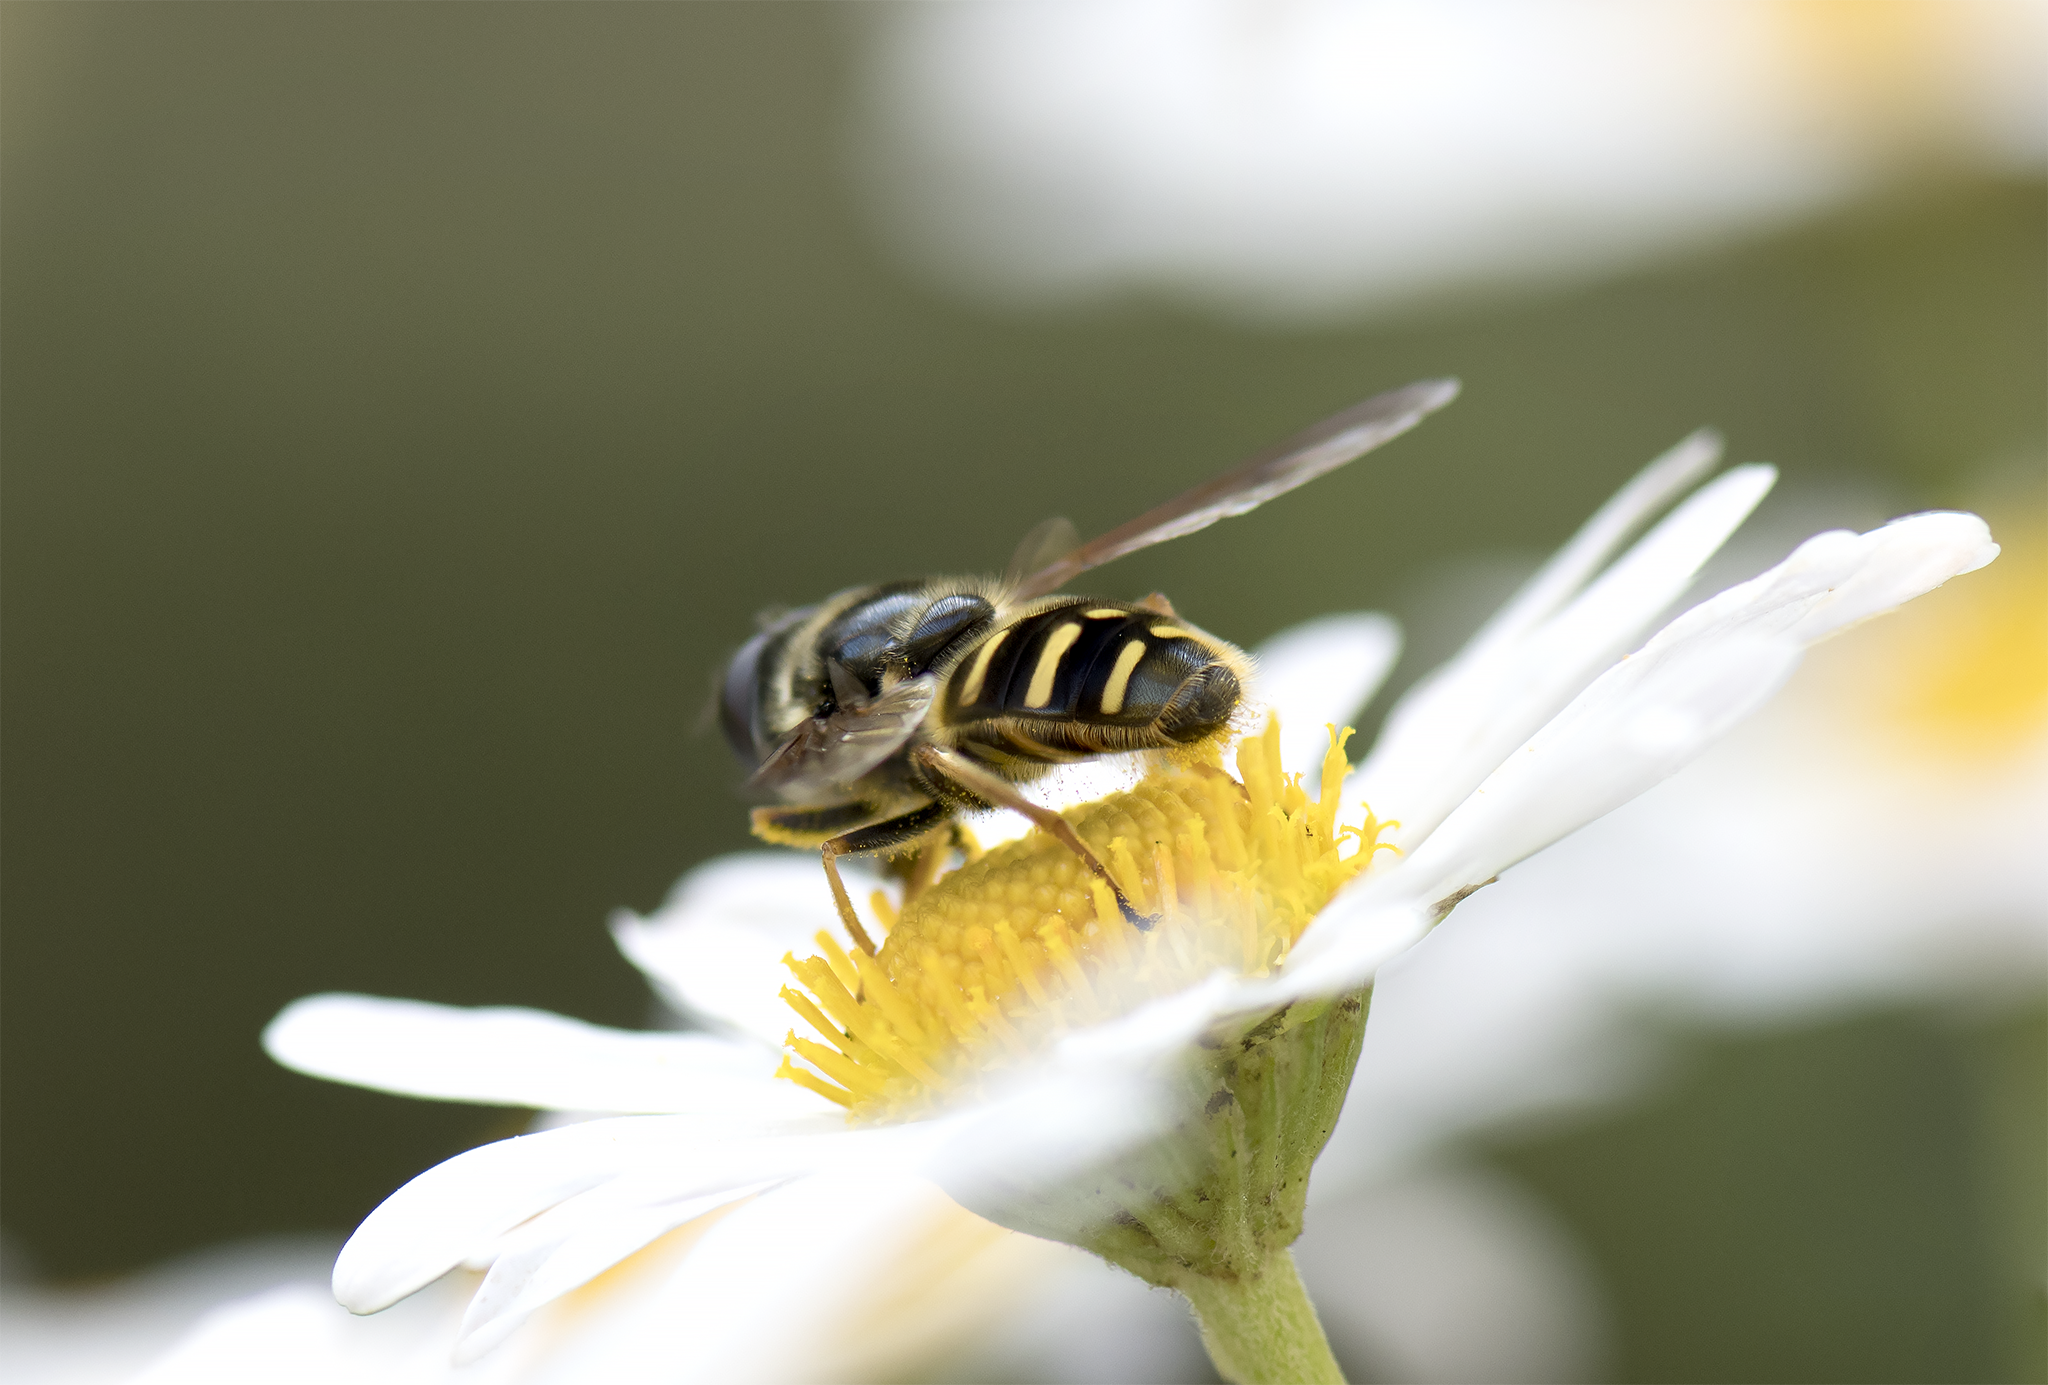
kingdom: Animalia
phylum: Arthropoda
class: Insecta
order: Diptera
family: Syrphidae
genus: Sericomyia
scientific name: Sericomyia chalcopyga
